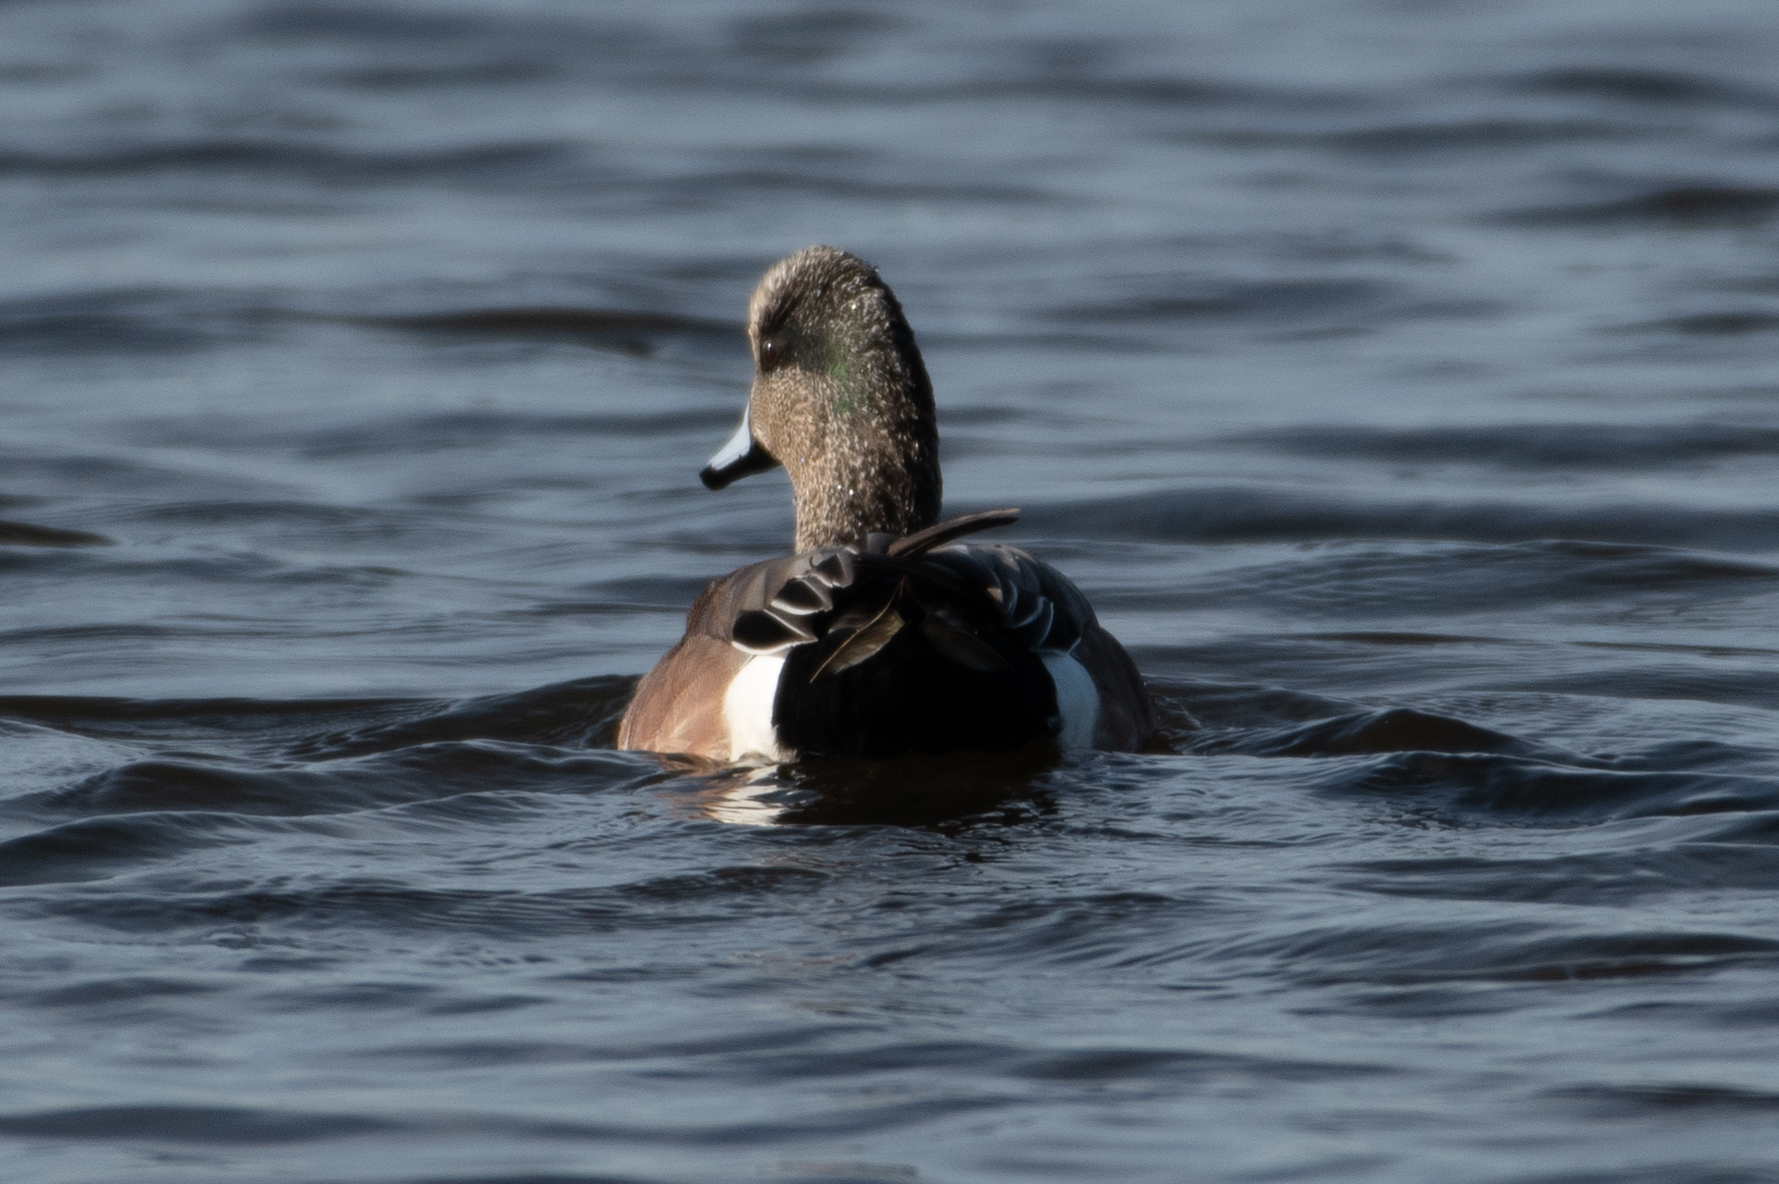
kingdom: Animalia
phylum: Chordata
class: Aves
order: Anseriformes
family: Anatidae
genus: Mareca
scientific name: Mareca americana
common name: American wigeon
